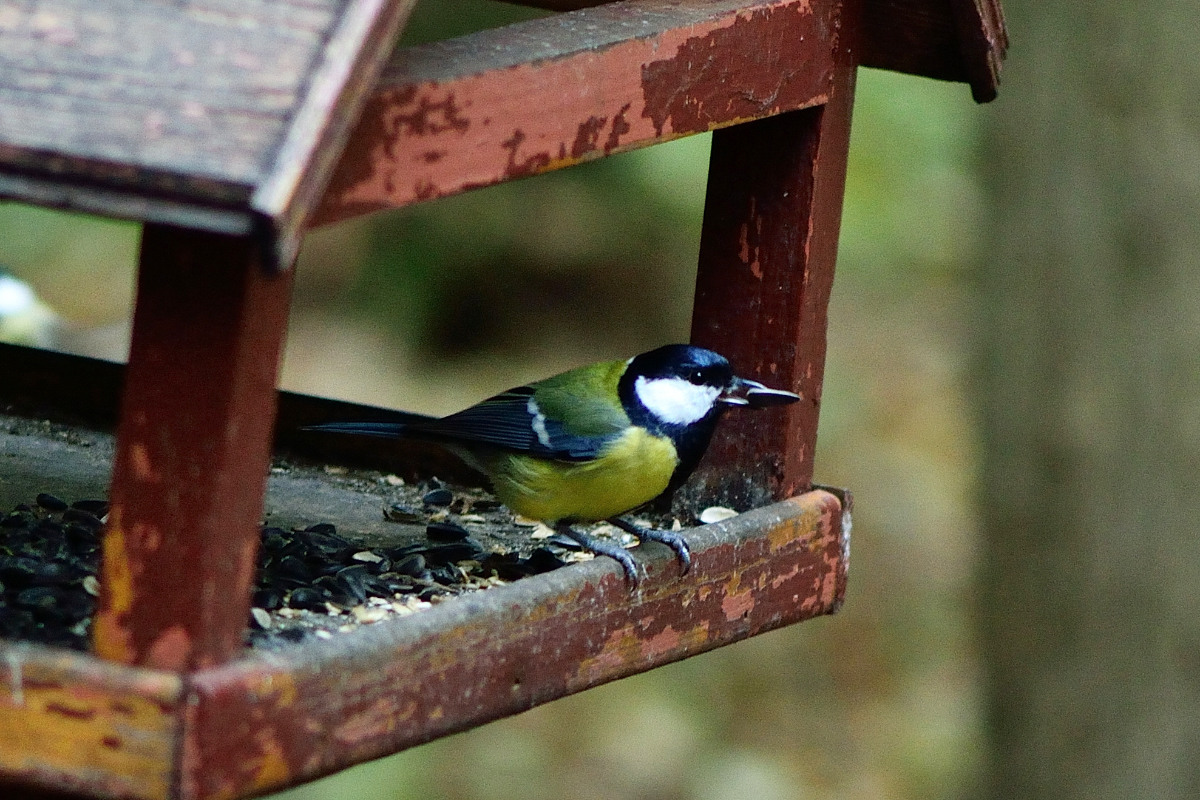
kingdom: Animalia
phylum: Chordata
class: Aves
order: Passeriformes
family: Paridae
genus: Parus
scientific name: Parus major
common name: Great tit
